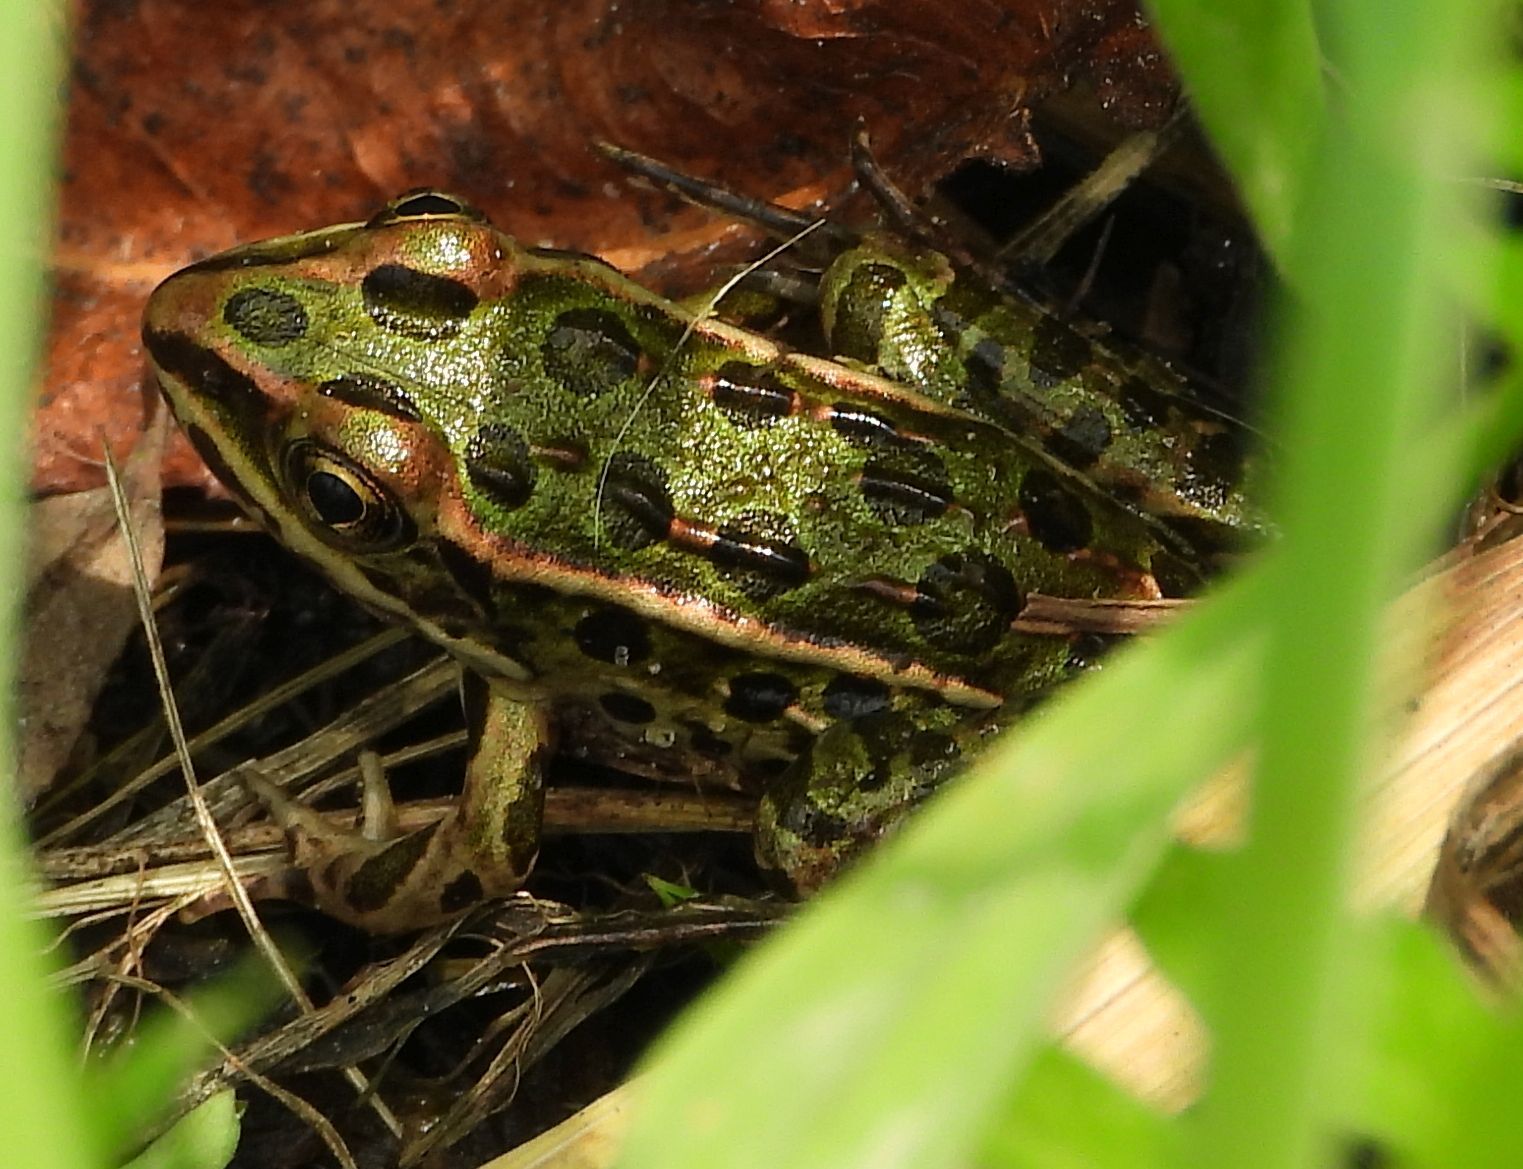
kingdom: Animalia
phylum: Chordata
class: Amphibia
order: Anura
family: Ranidae
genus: Lithobates
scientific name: Lithobates pipiens
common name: Northern leopard frog
